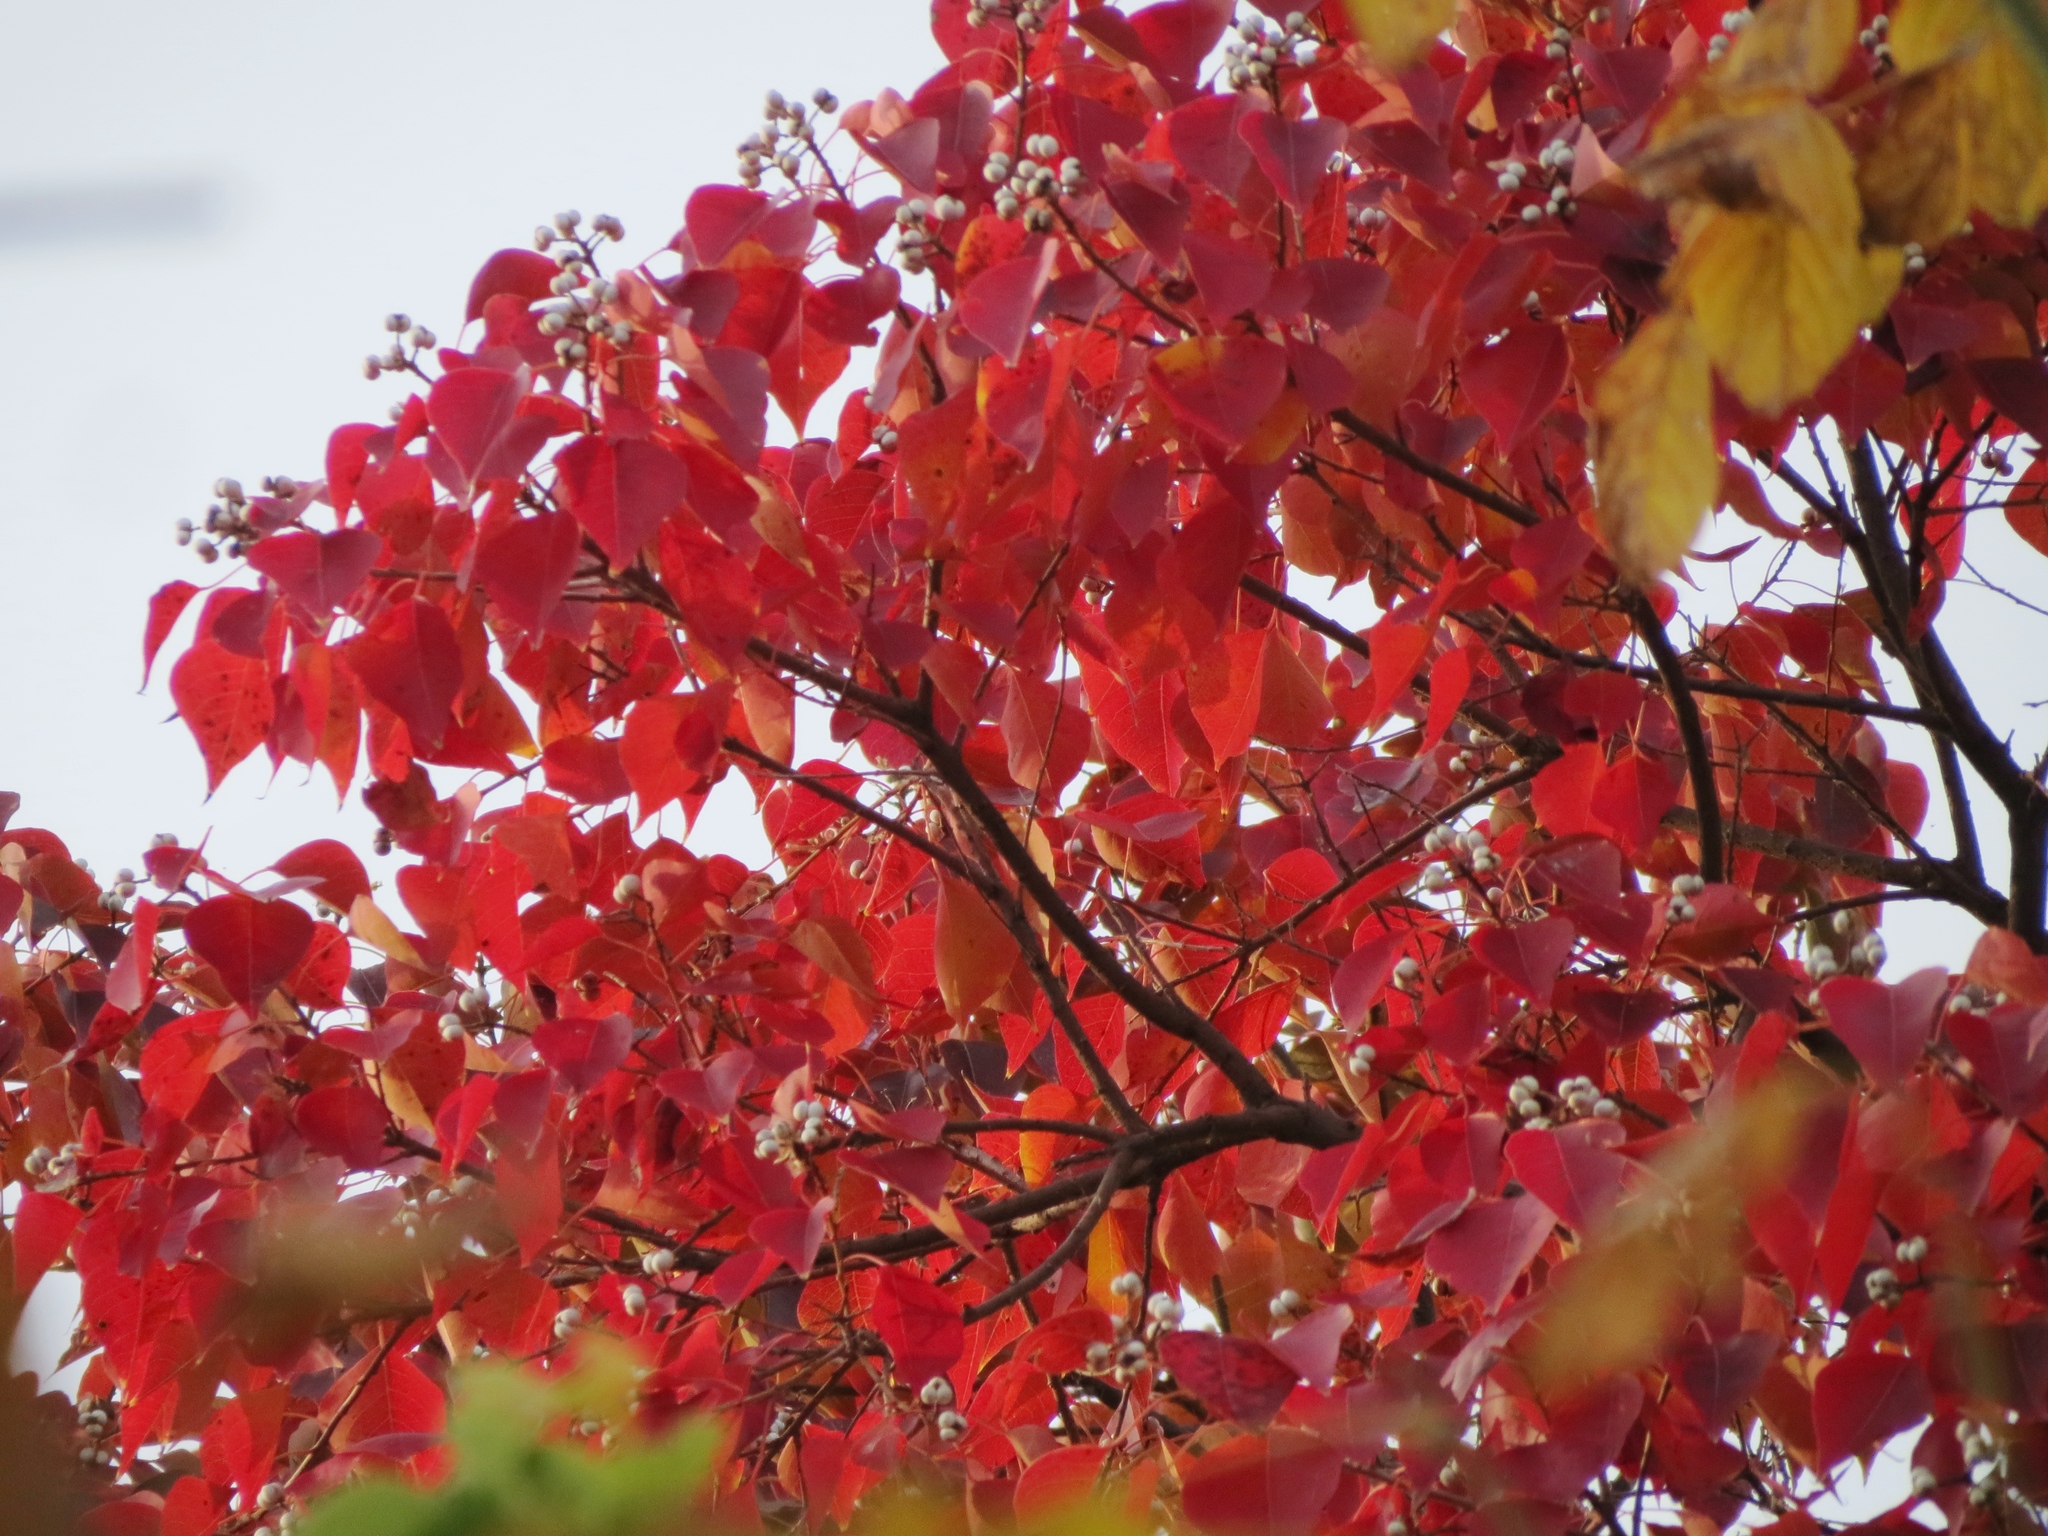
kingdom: Plantae
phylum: Tracheophyta
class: Magnoliopsida
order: Malpighiales
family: Euphorbiaceae
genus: Triadica
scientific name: Triadica sebifera
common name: Chinese tallow
